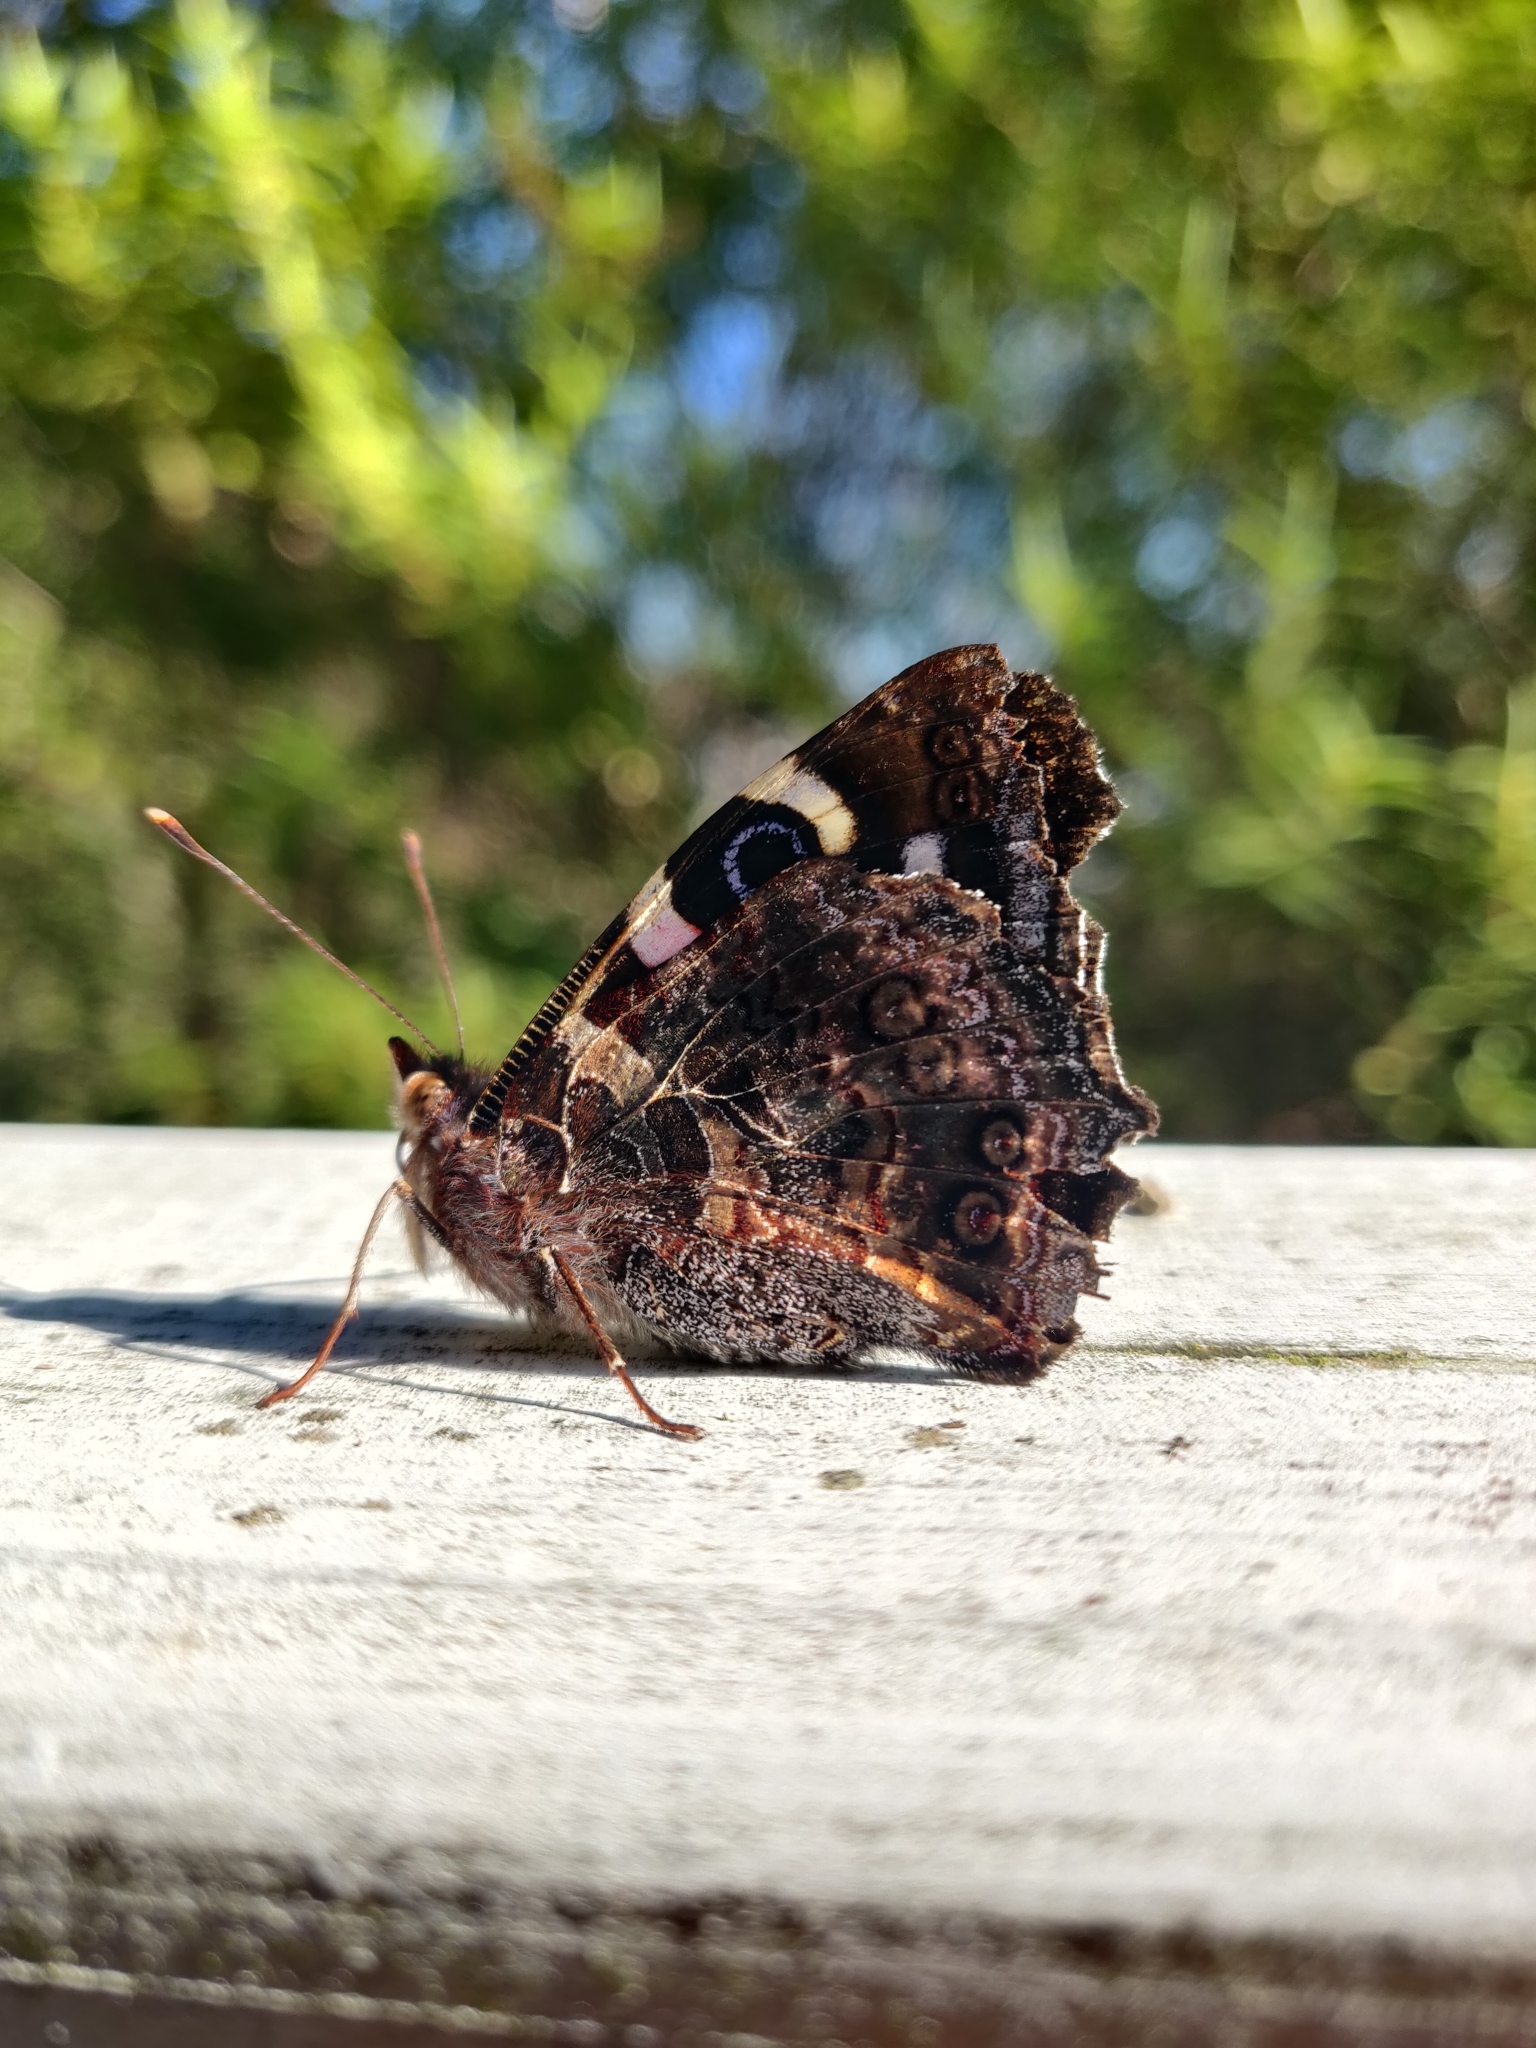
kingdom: Animalia
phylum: Arthropoda
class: Insecta
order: Lepidoptera
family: Nymphalidae
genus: Vanessa
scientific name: Vanessa gonerilla
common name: New zealand red admiral
